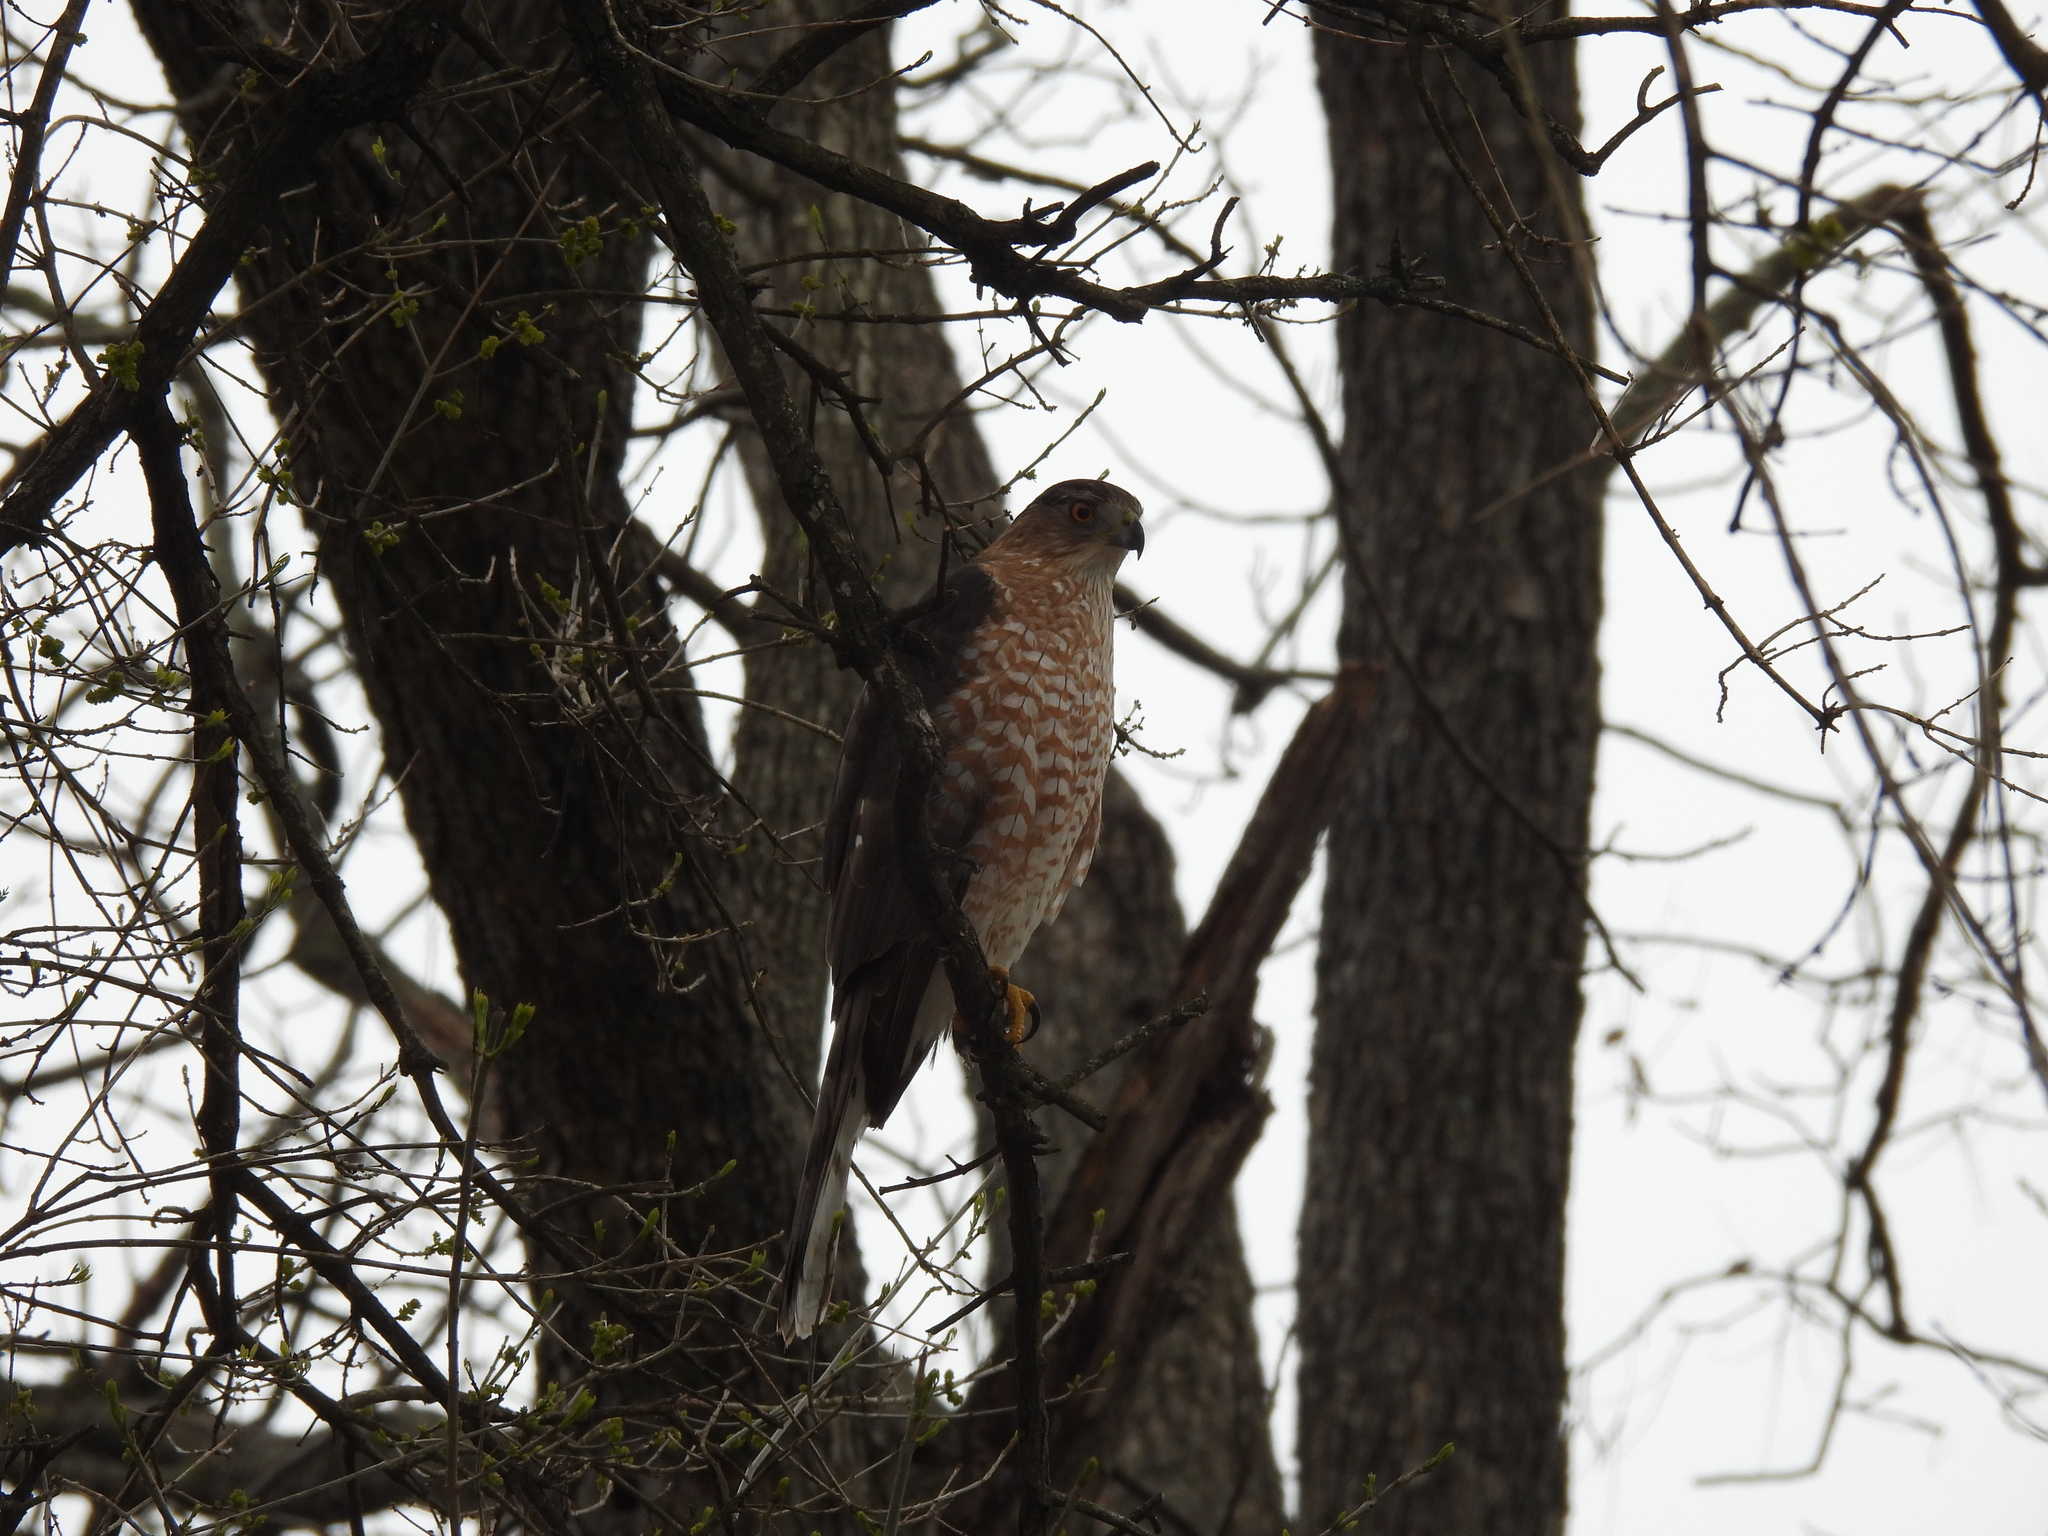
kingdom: Animalia
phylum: Chordata
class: Aves
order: Accipitriformes
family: Accipitridae
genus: Accipiter
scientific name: Accipiter cooperii
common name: Cooper's hawk
